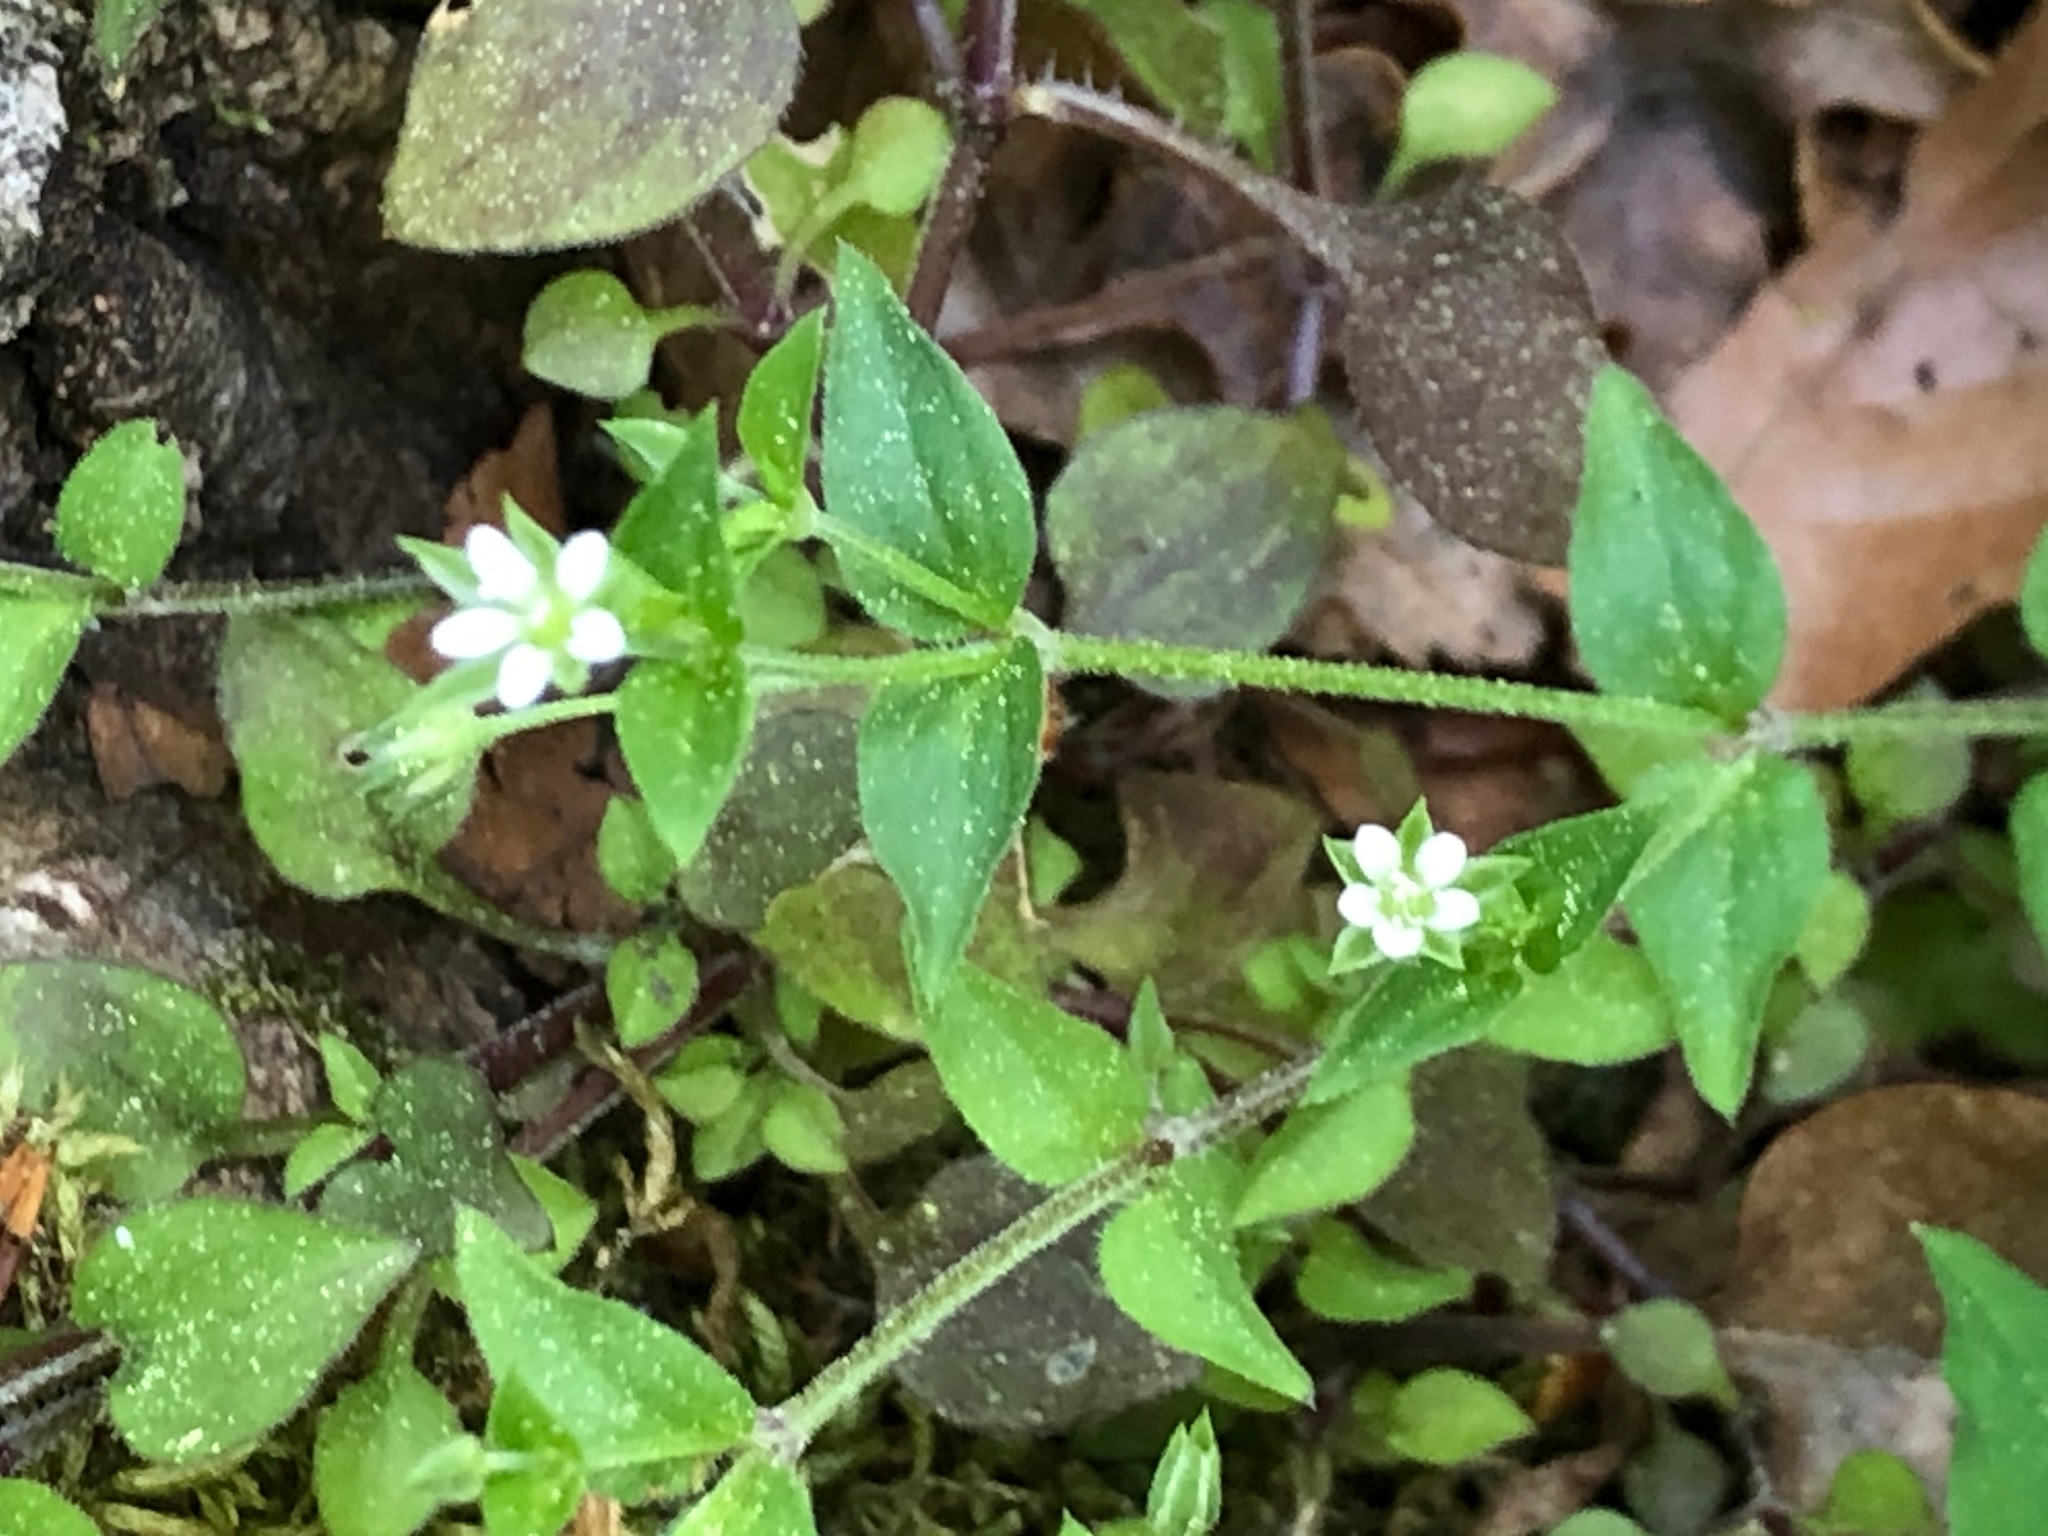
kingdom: Plantae
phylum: Tracheophyta
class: Magnoliopsida
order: Caryophyllales
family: Caryophyllaceae
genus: Moehringia
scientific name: Moehringia trinervia
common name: Three-nerved sandwort
